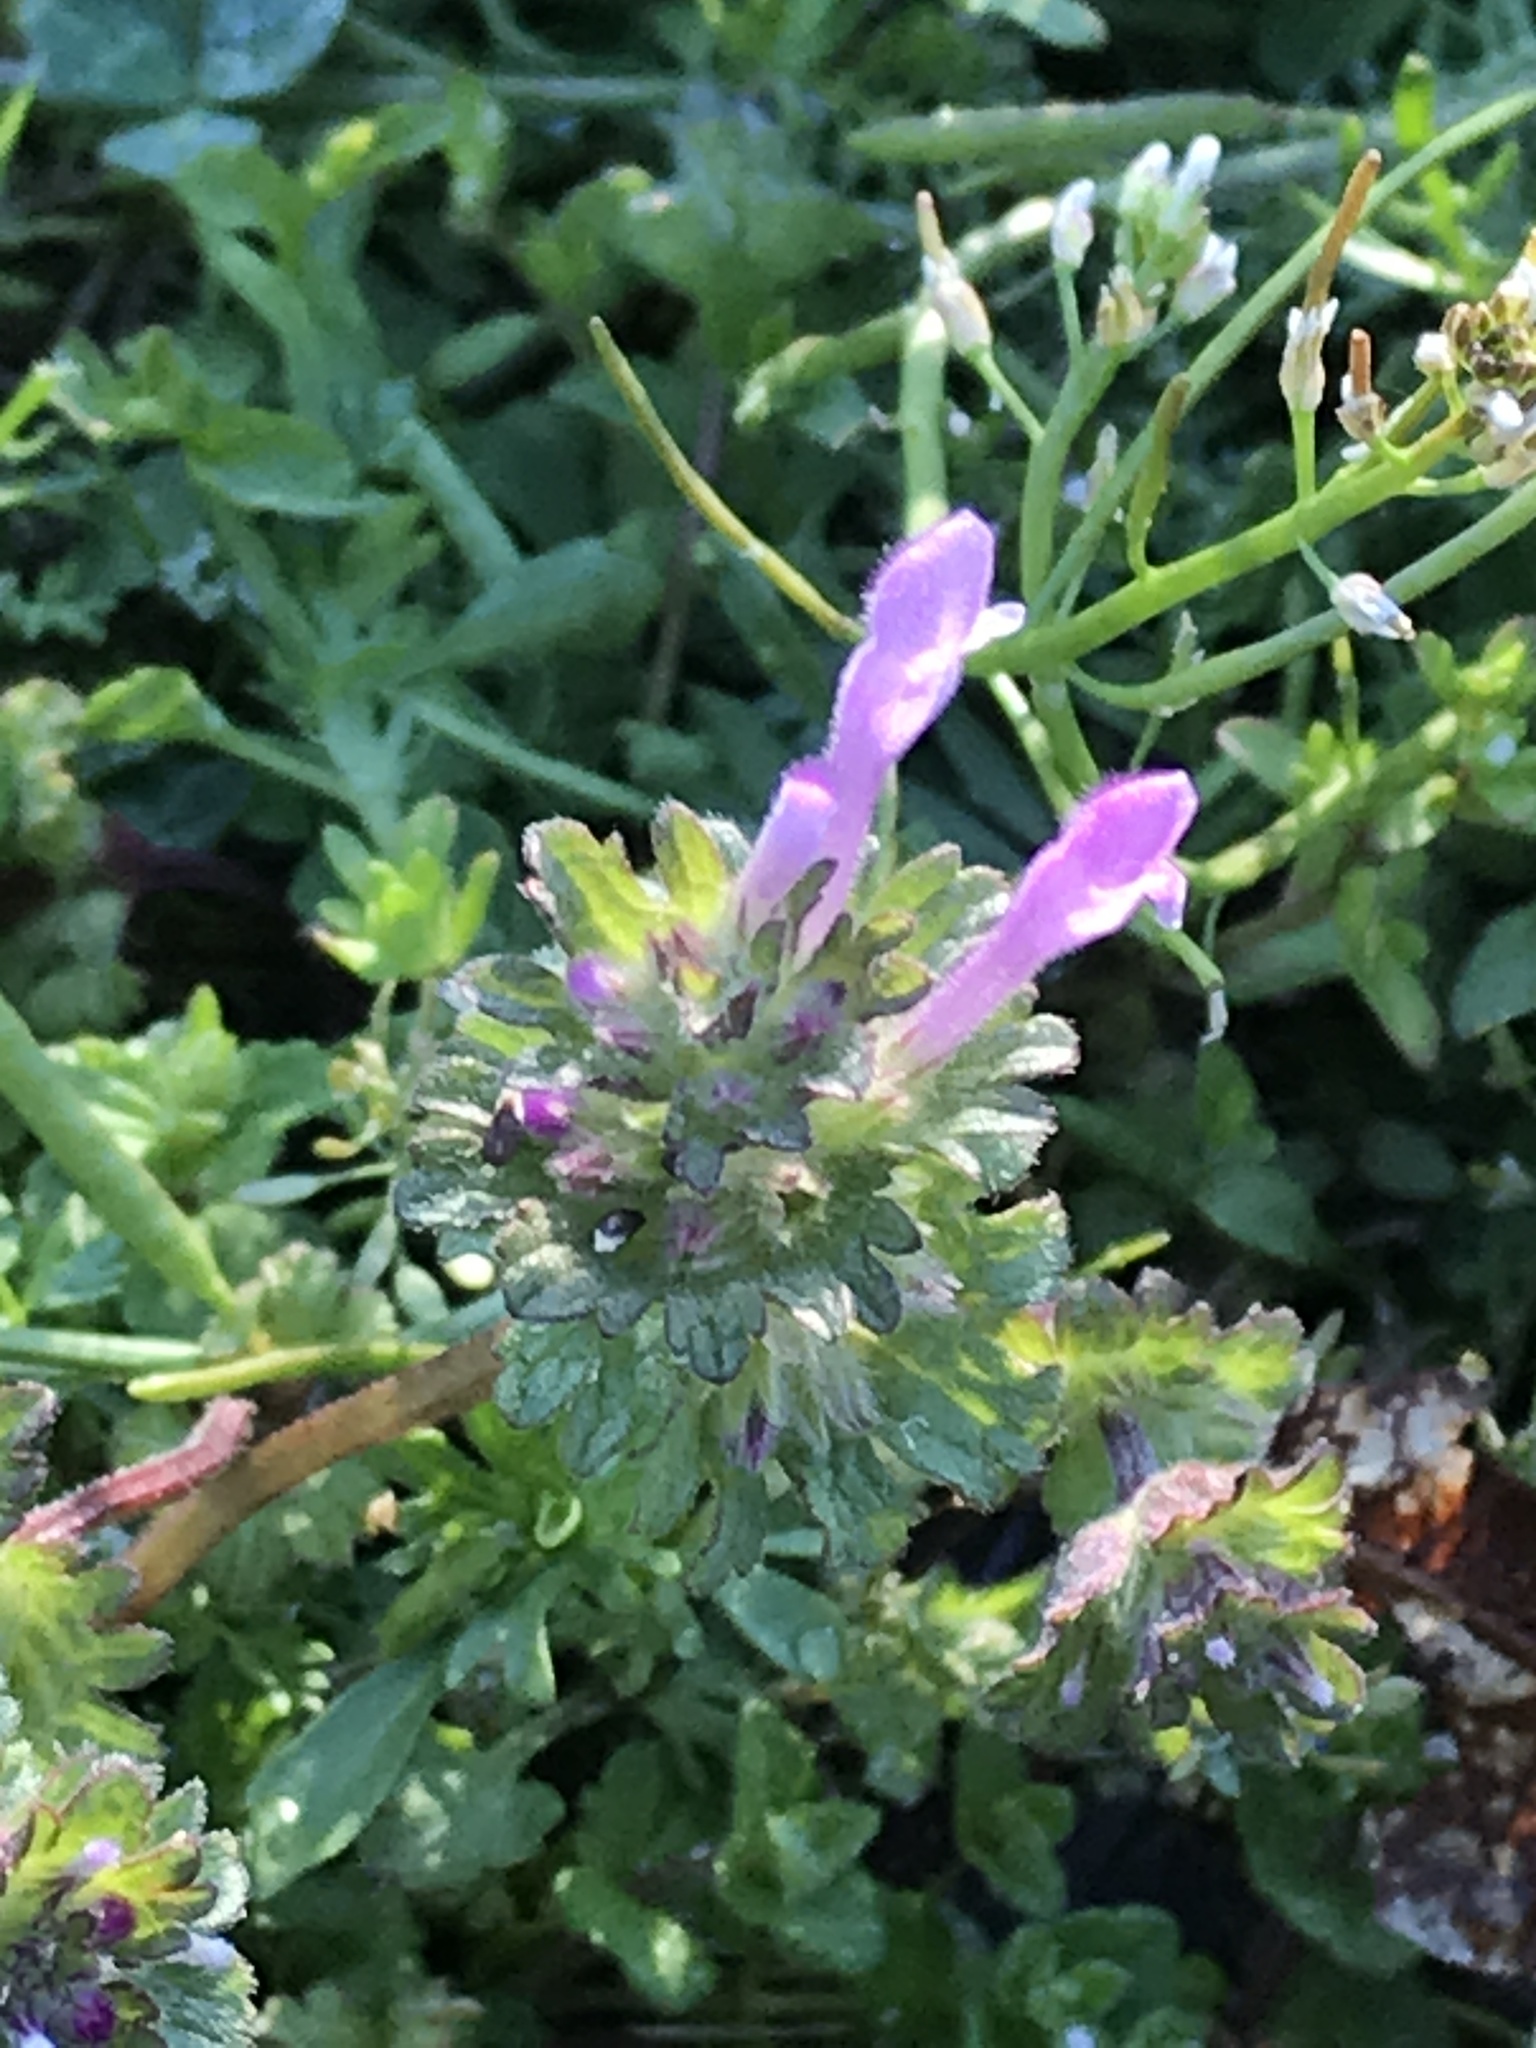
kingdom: Plantae
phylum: Tracheophyta
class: Magnoliopsida
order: Lamiales
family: Lamiaceae
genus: Lamium
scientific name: Lamium amplexicaule
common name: Henbit dead-nettle
